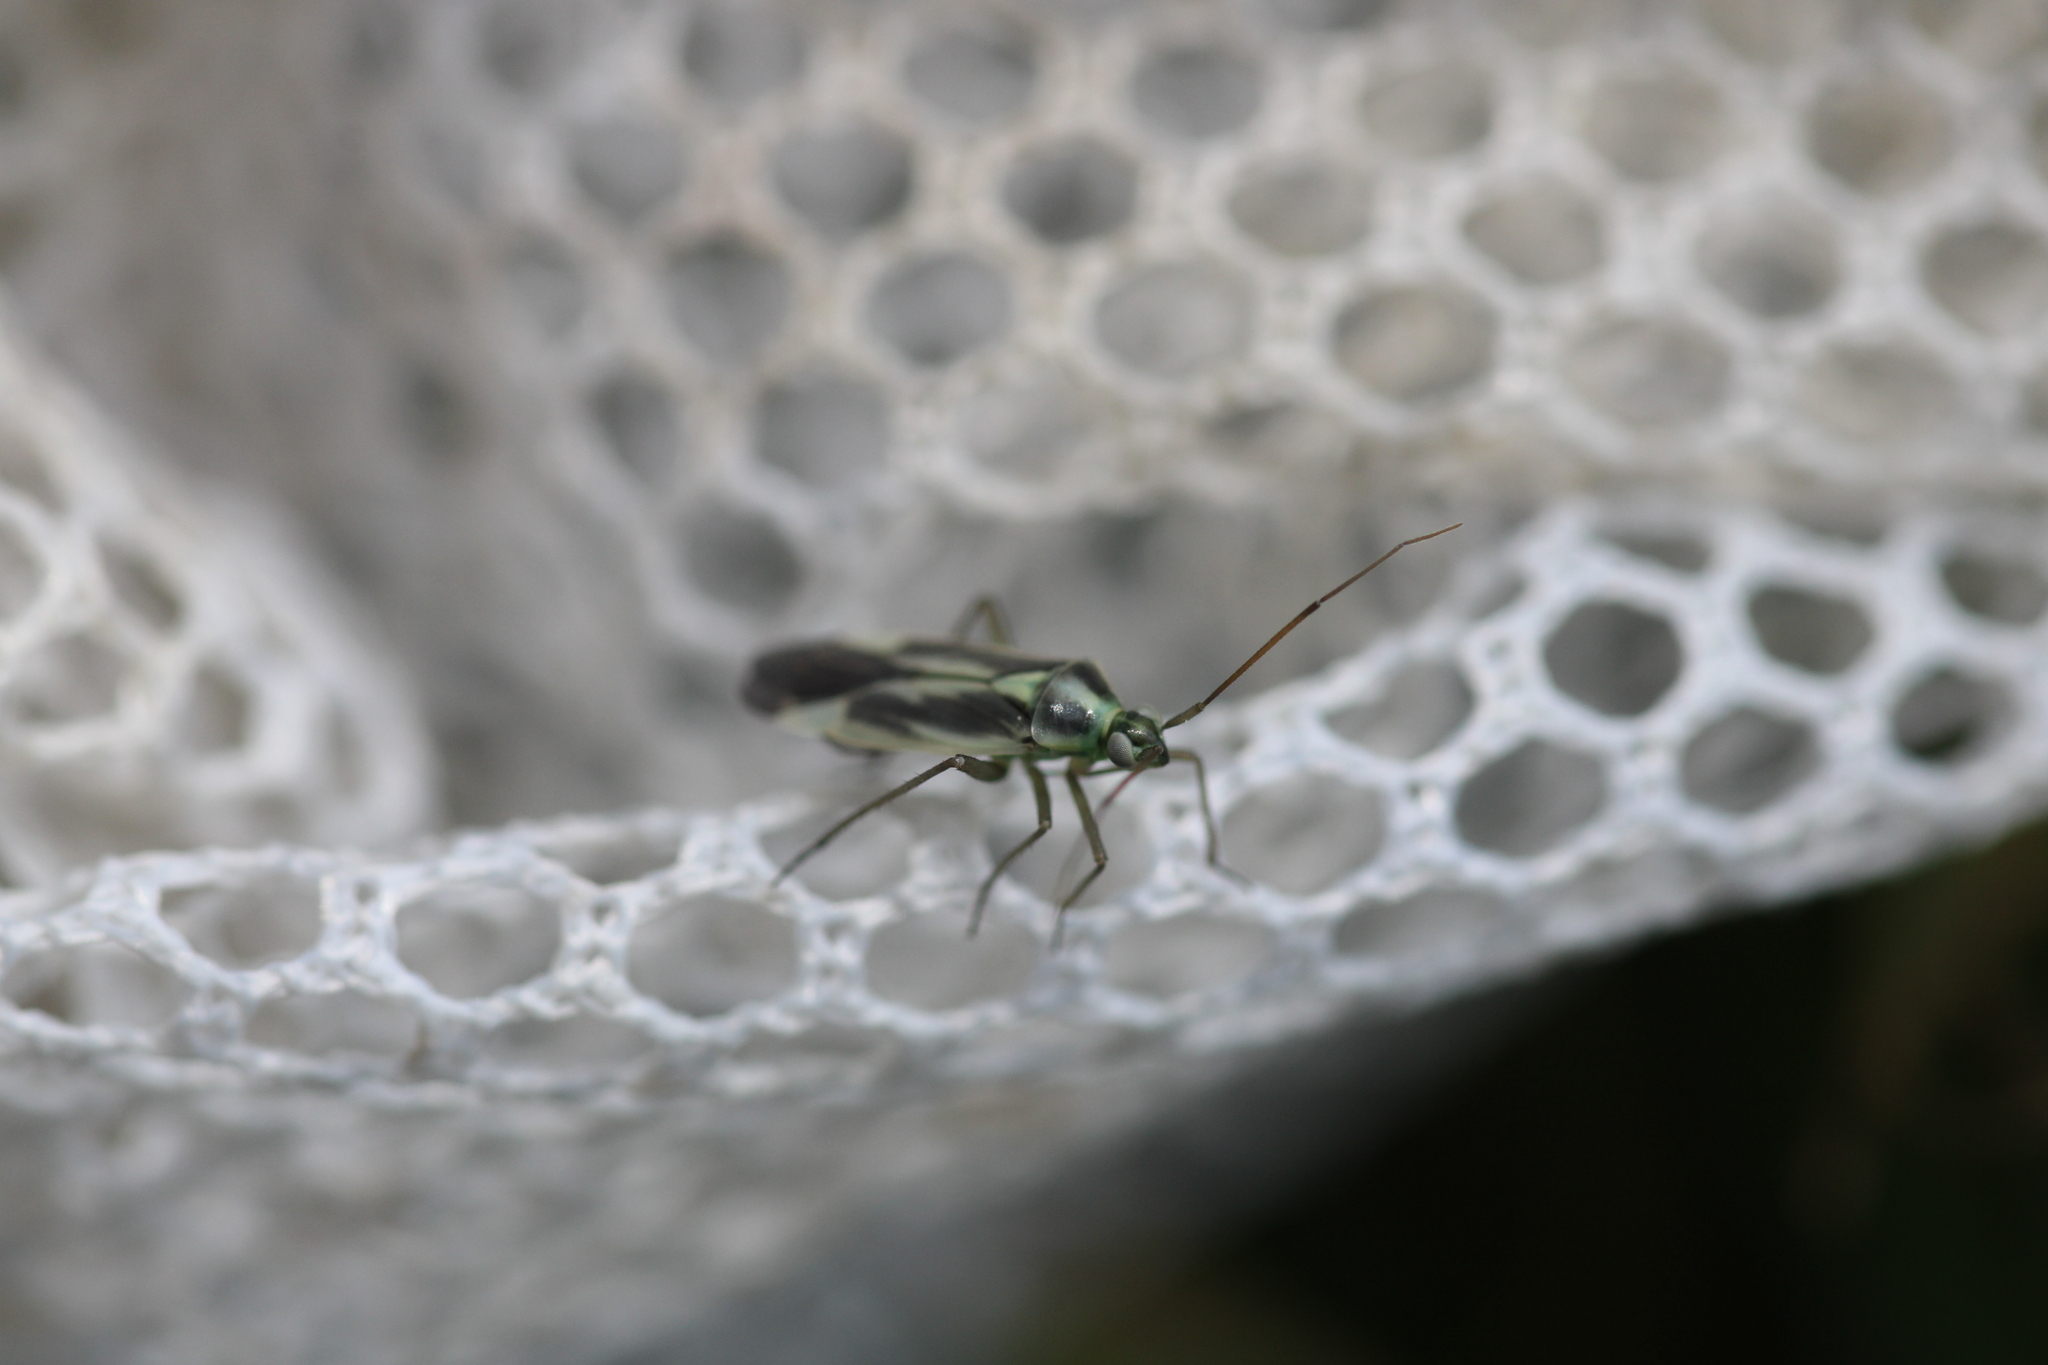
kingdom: Animalia
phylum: Arthropoda
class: Insecta
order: Hemiptera
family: Miridae
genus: Stenotus
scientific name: Stenotus binotatus
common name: Plant bug
